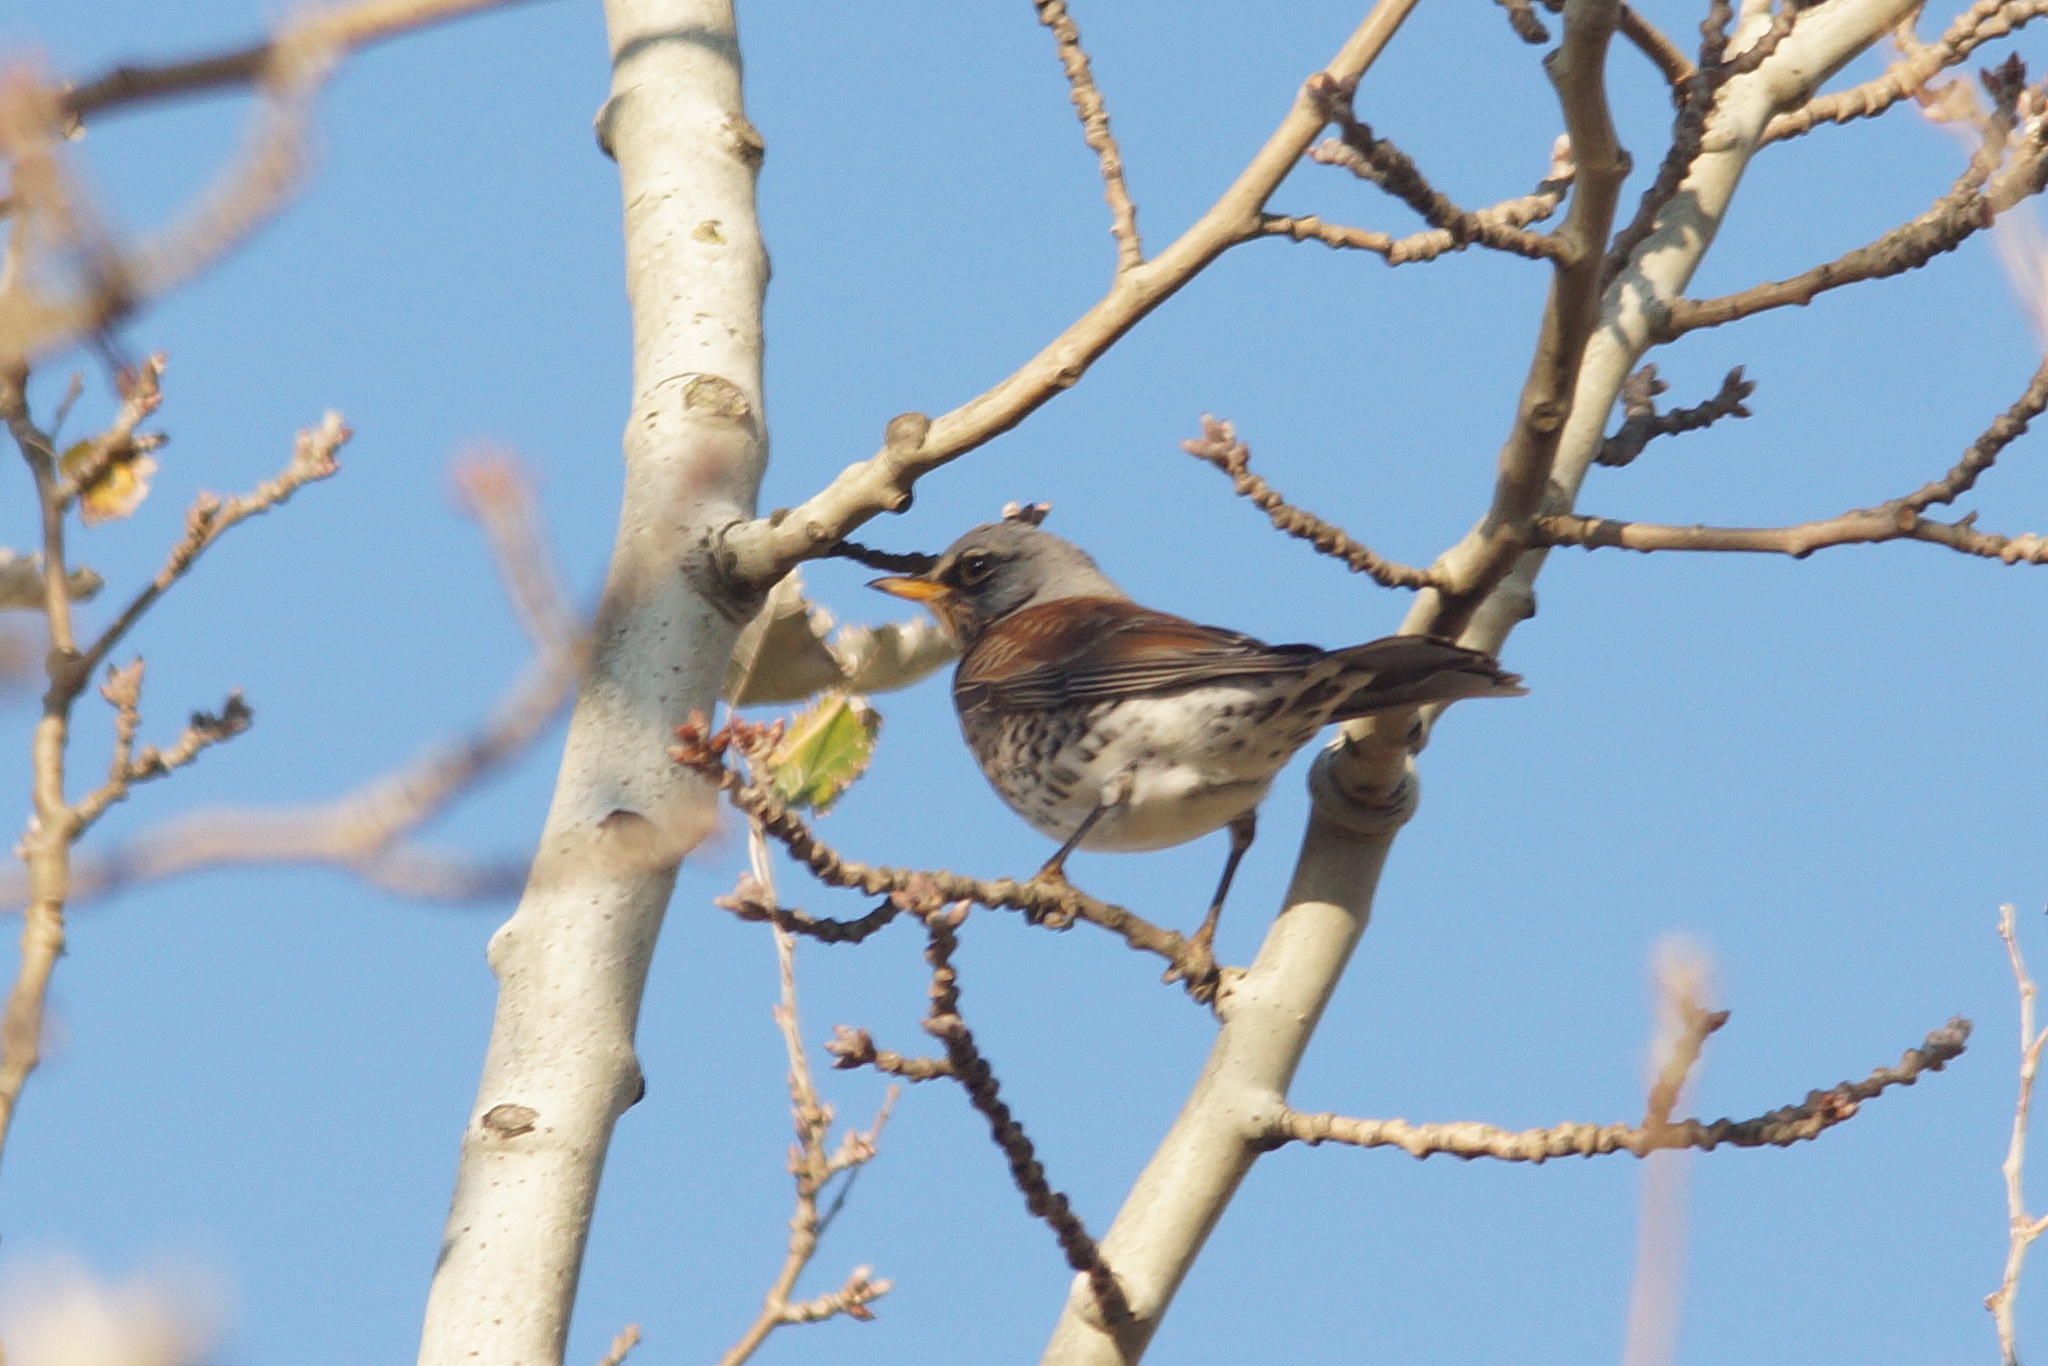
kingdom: Animalia
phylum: Chordata
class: Aves
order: Passeriformes
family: Turdidae
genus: Turdus
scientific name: Turdus pilaris
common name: Fieldfare
